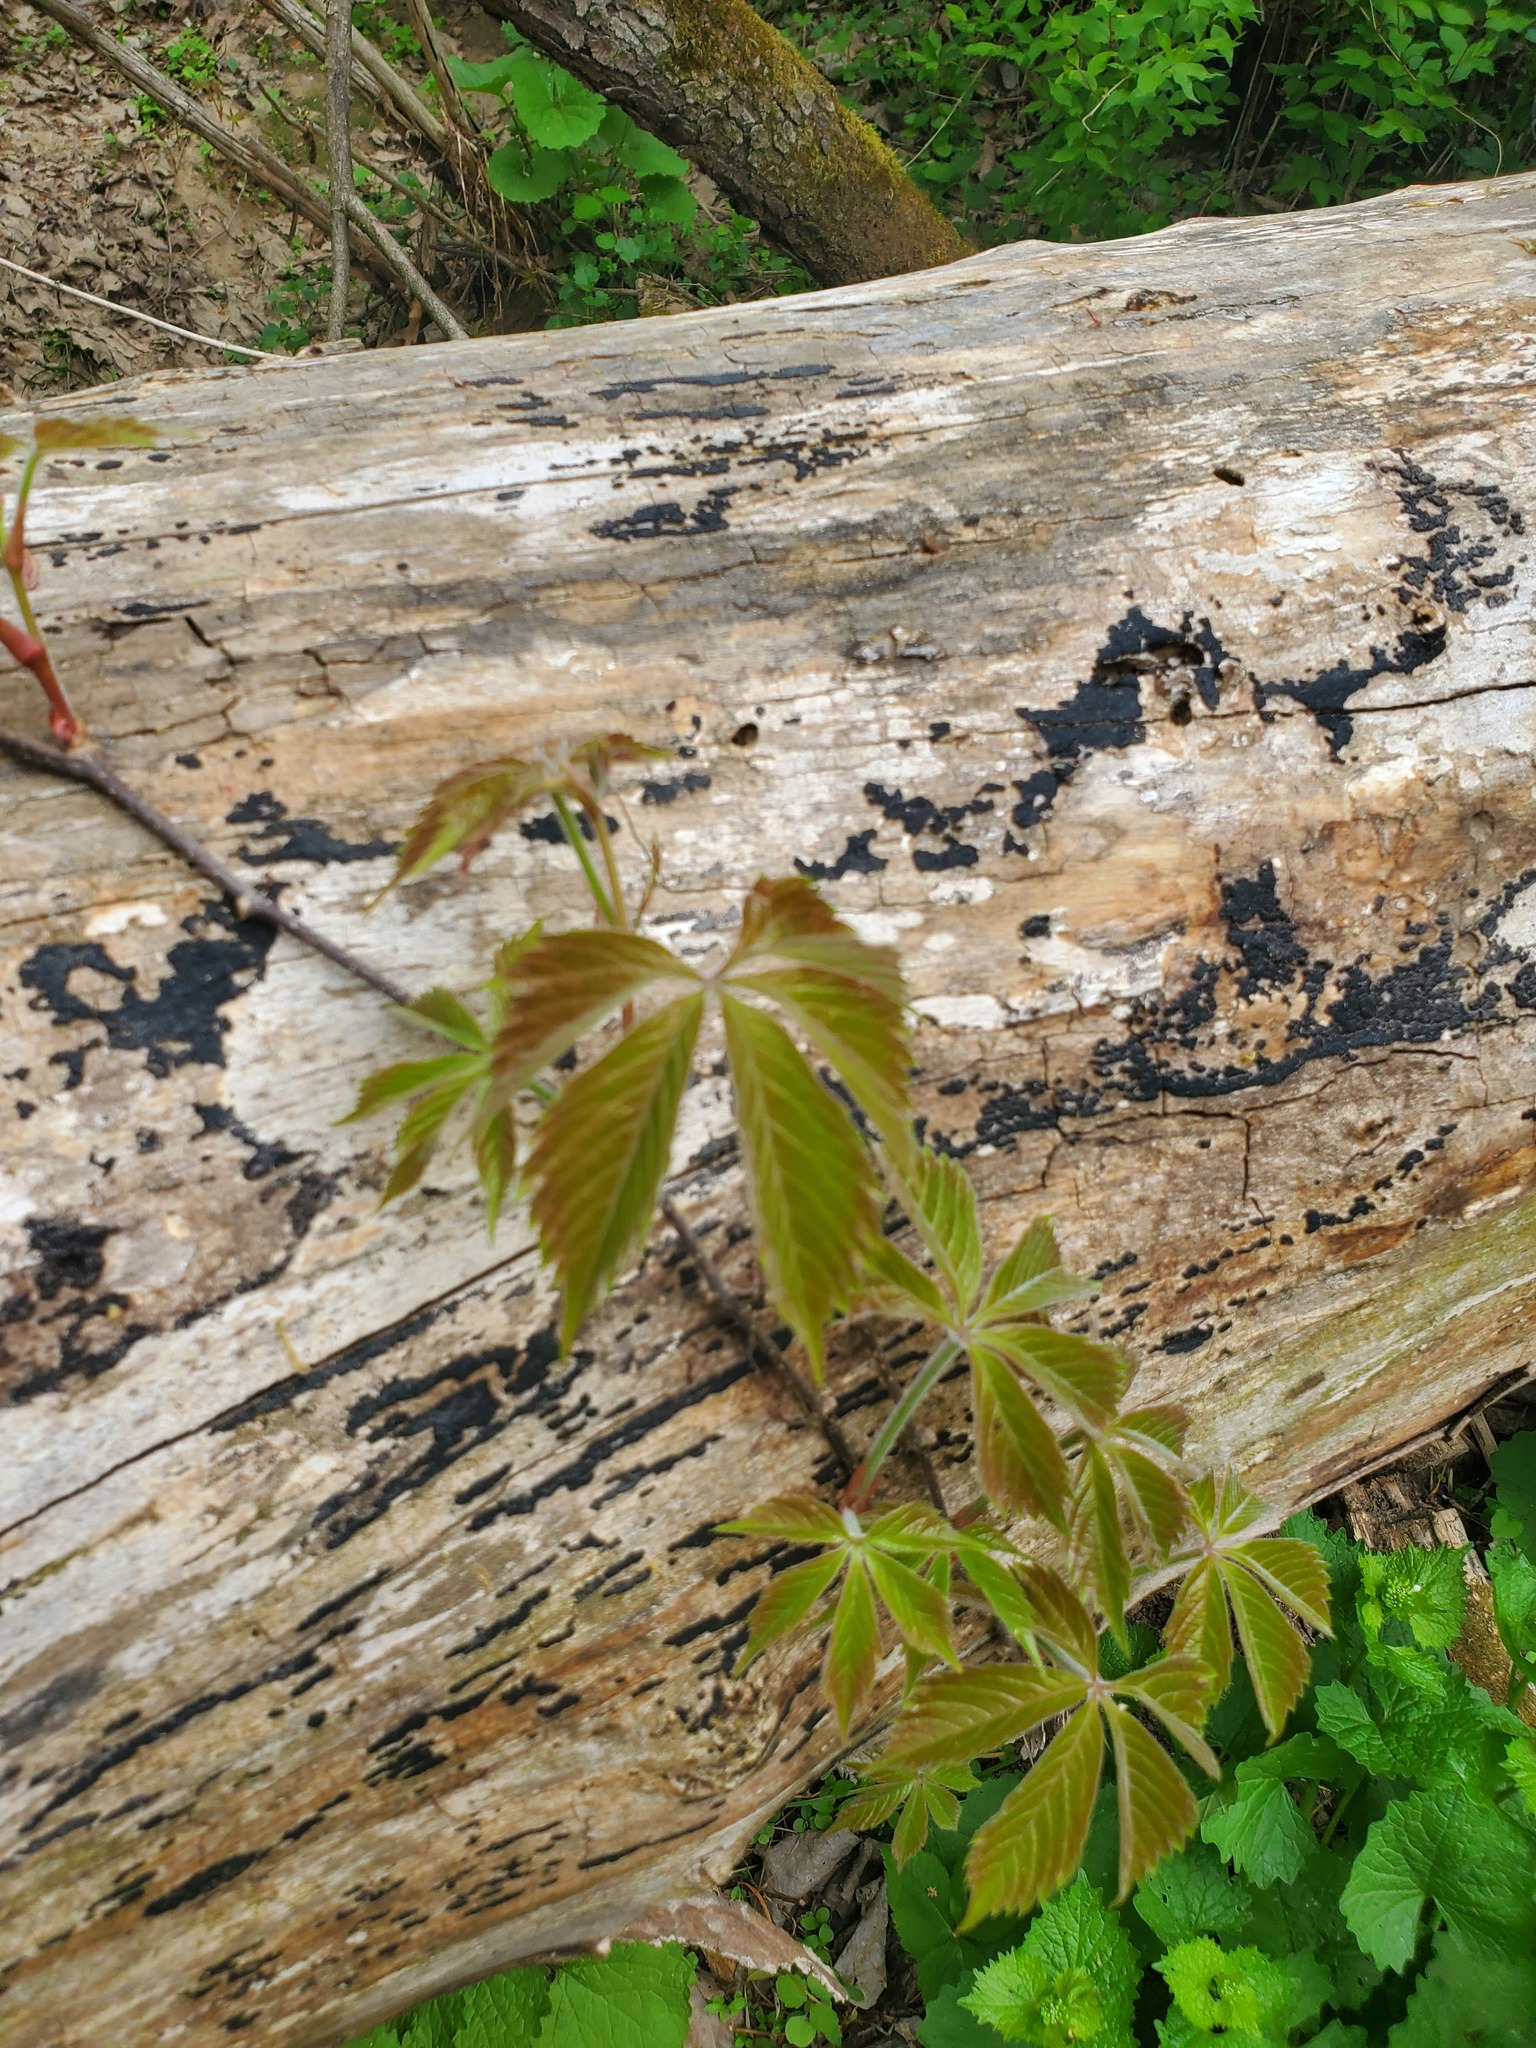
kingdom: Plantae
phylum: Tracheophyta
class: Magnoliopsida
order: Vitales
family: Vitaceae
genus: Parthenocissus
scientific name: Parthenocissus quinquefolia
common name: Virginia-creeper
